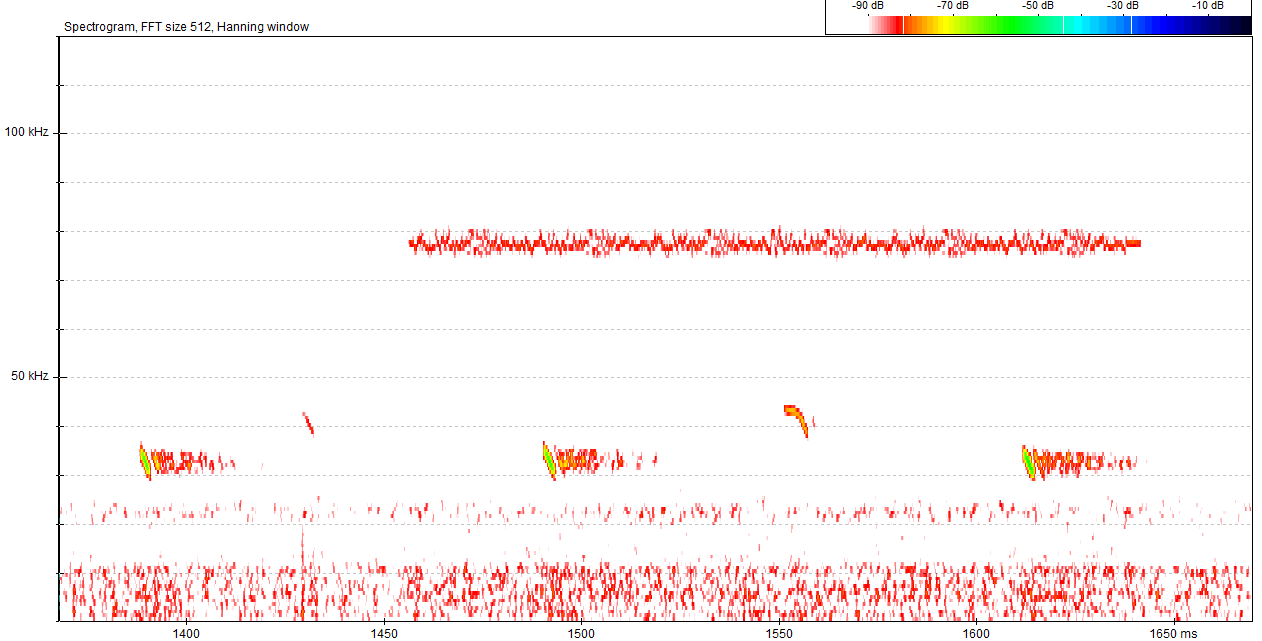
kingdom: Animalia
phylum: Chordata
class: Mammalia
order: Chiroptera
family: Vespertilionidae
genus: Barbastella
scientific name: Barbastella barbastellus
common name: Western barbastelle
